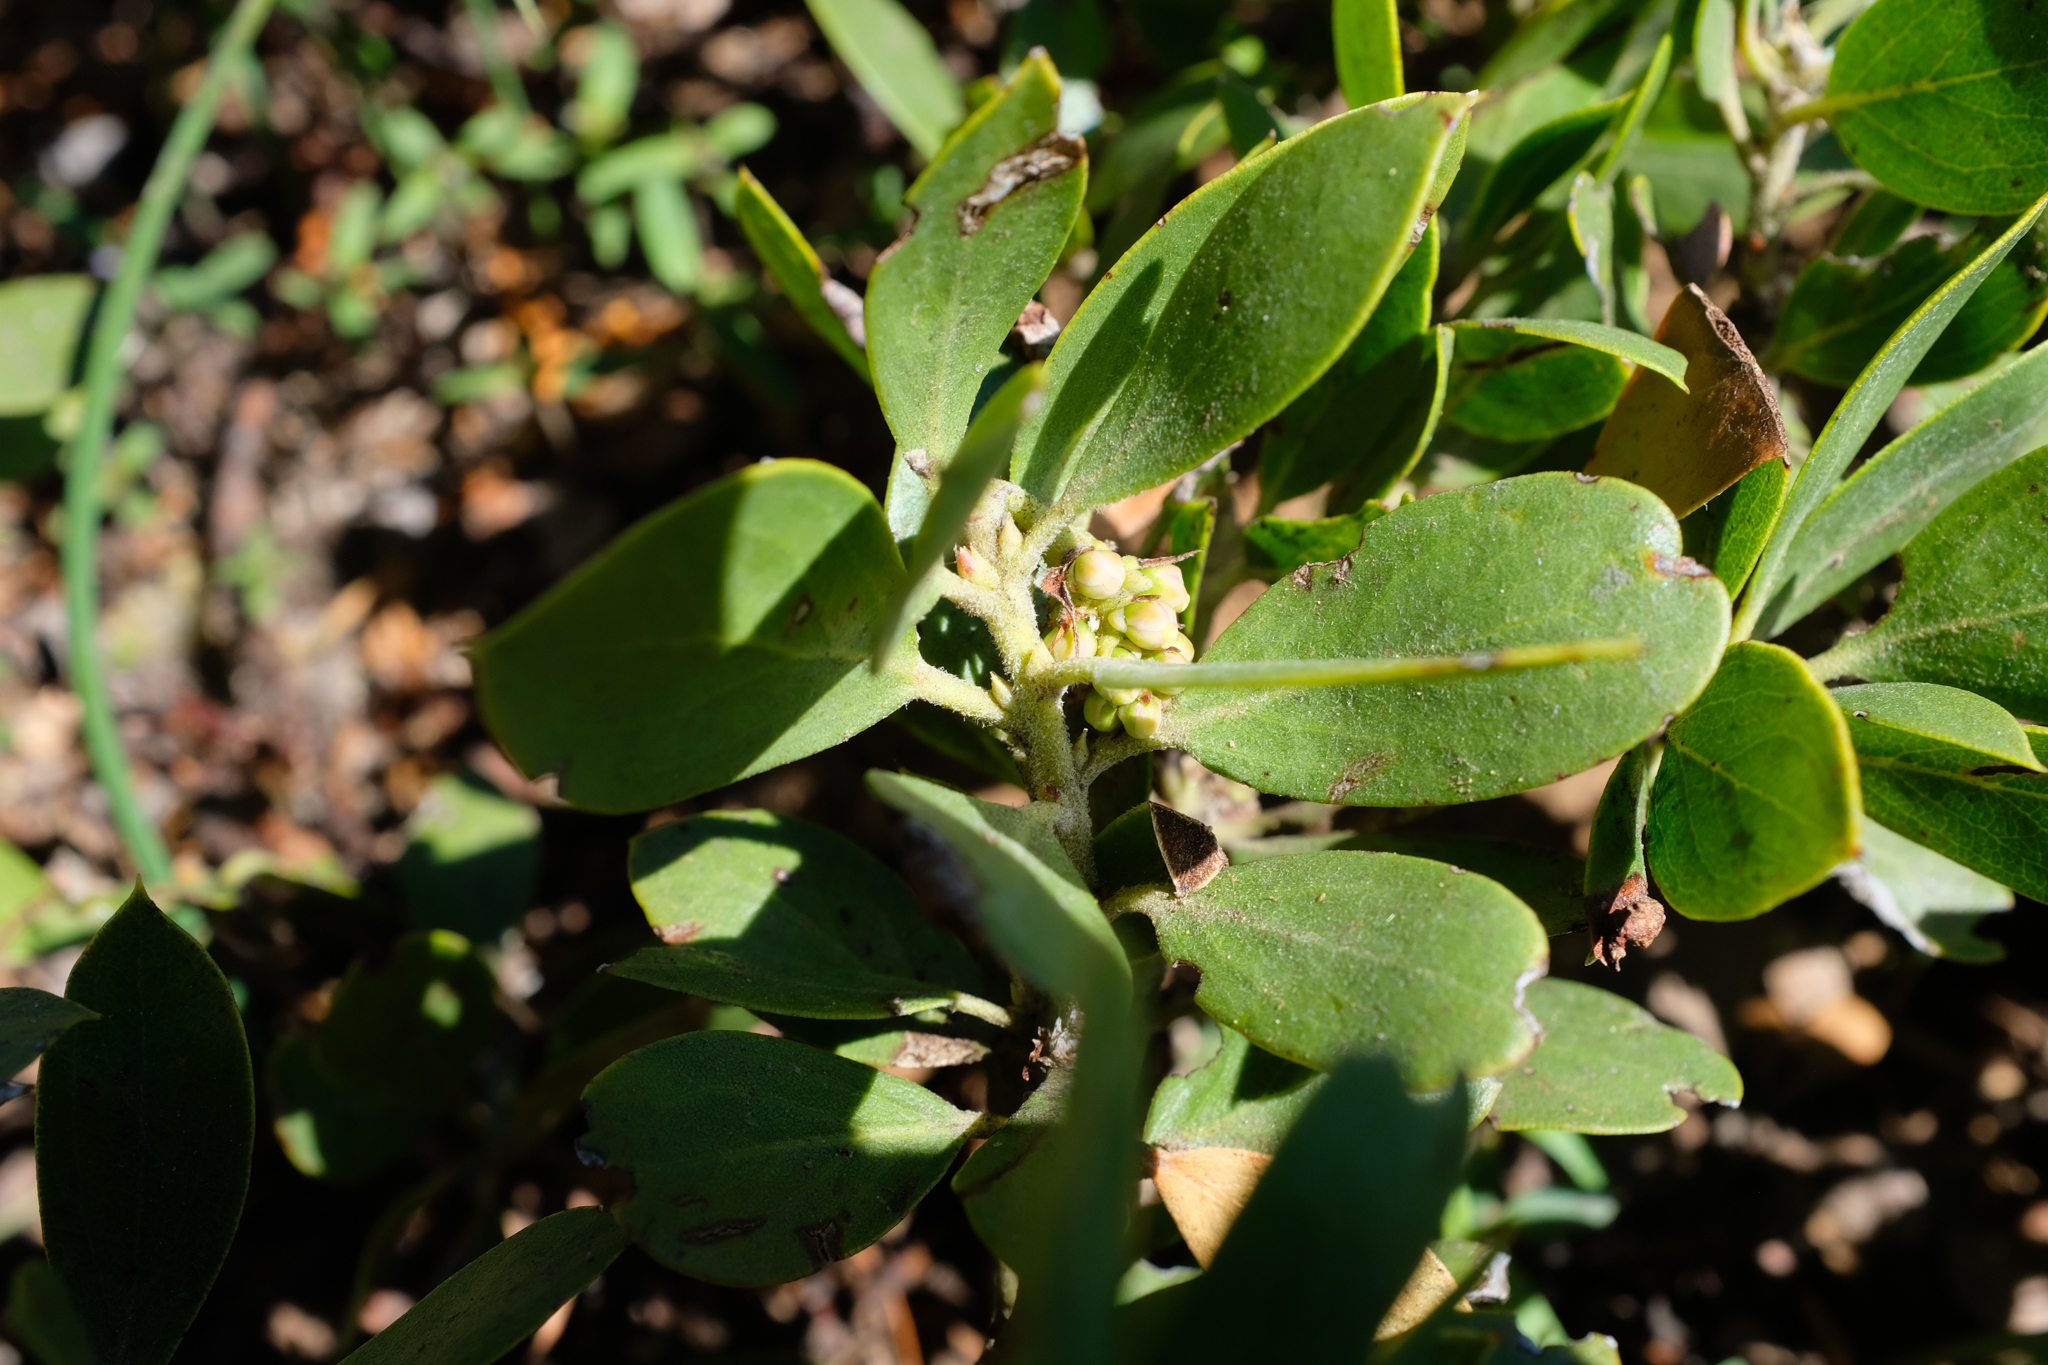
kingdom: Plantae
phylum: Tracheophyta
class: Magnoliopsida
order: Ericales
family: Ericaceae
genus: Arctostaphylos
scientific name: Arctostaphylos nevadensis
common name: Pinemat manzanita
